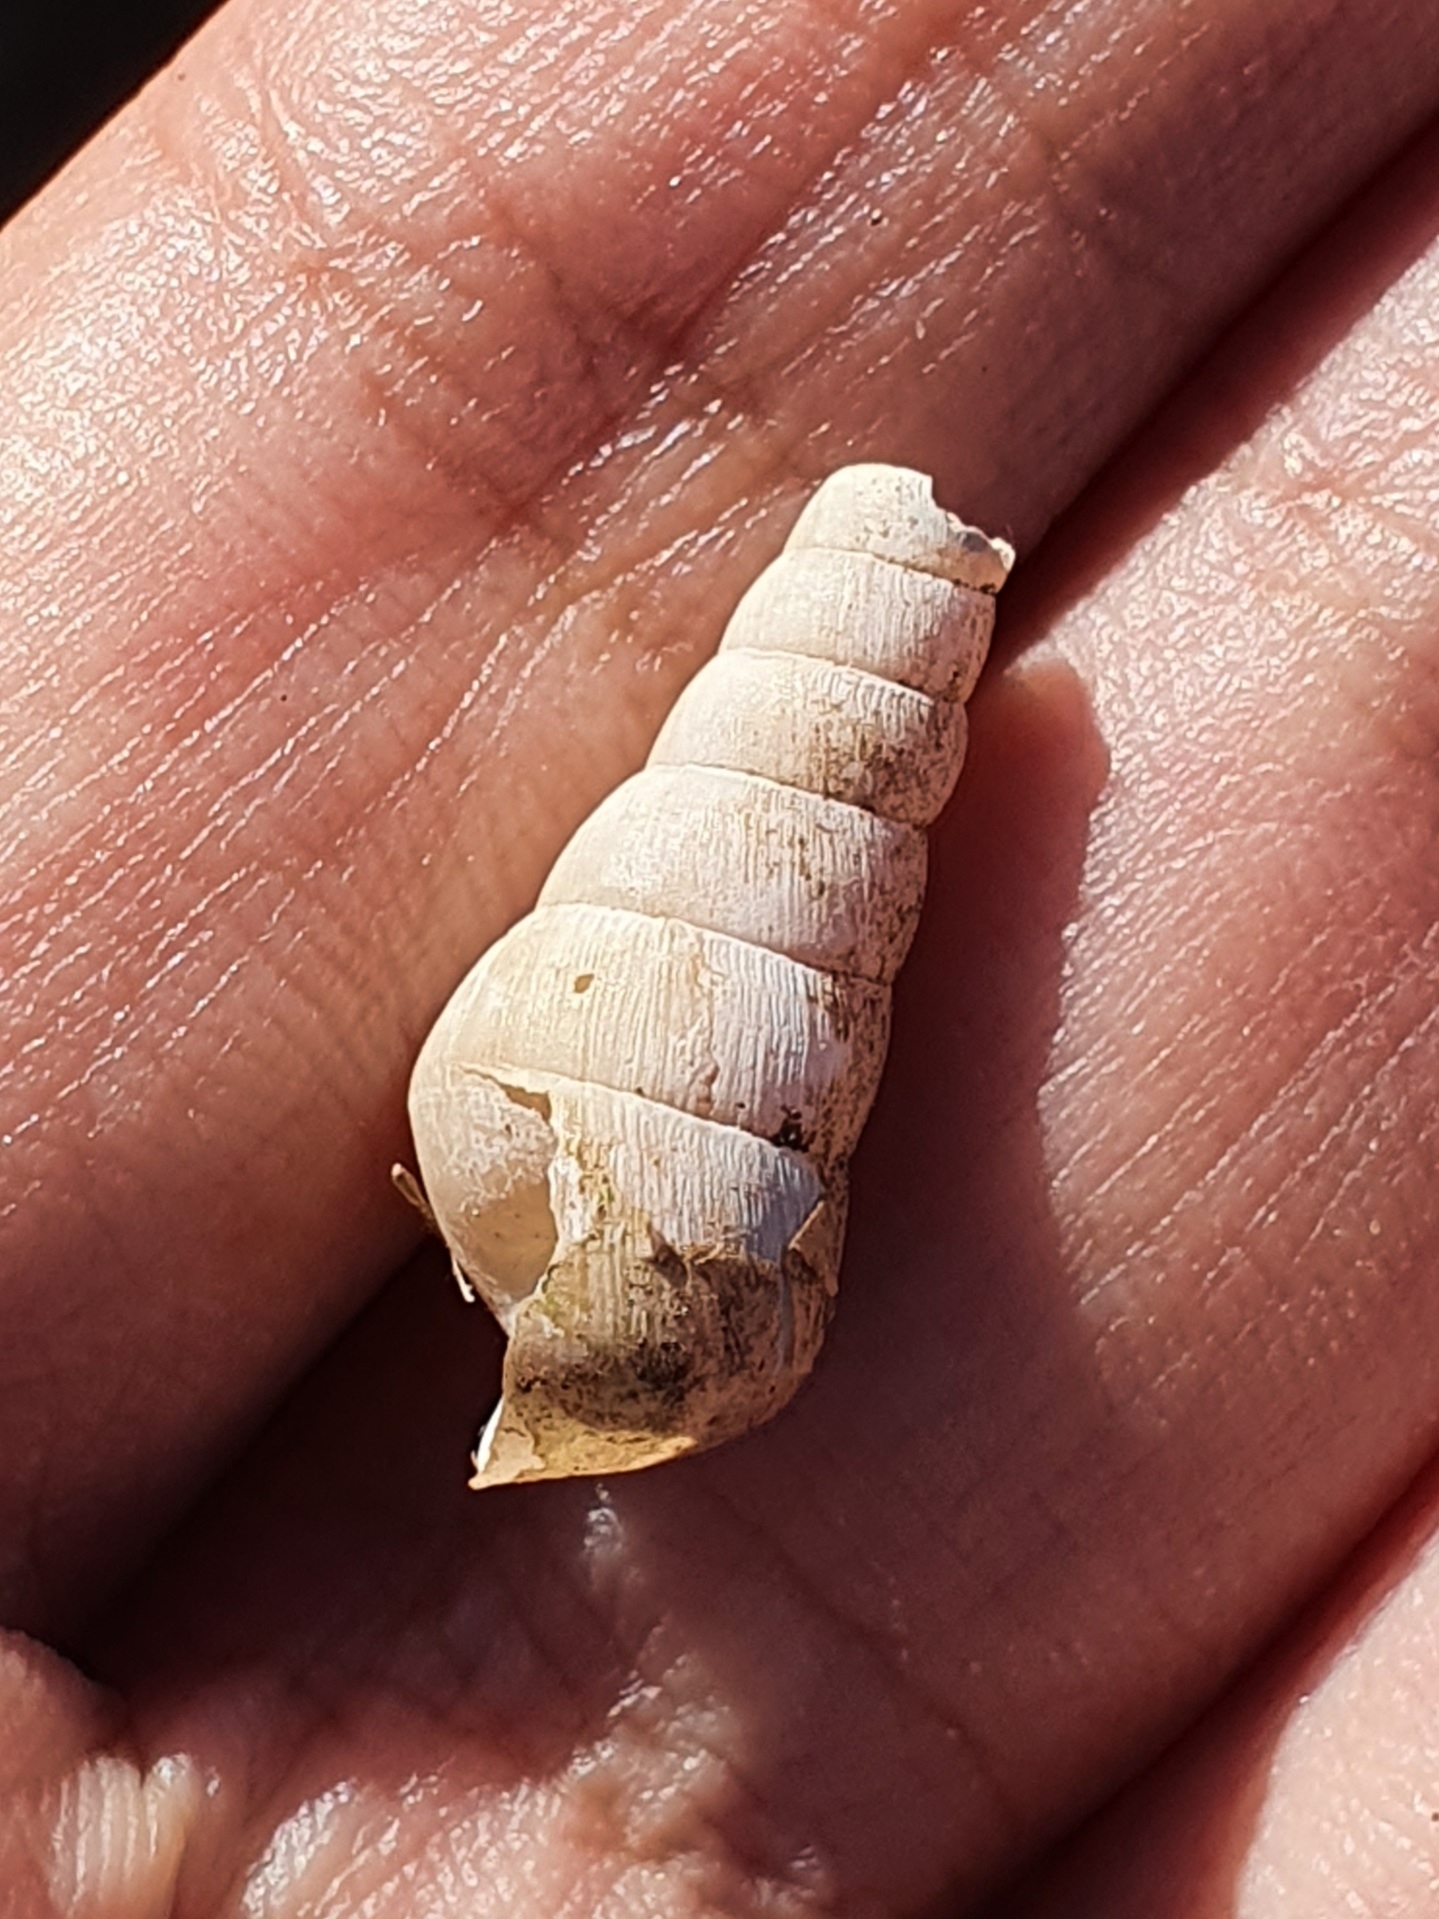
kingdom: Animalia
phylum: Mollusca
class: Gastropoda
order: Stylommatophora
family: Achatinidae
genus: Rumina
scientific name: Rumina decollata
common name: Decollate snail
